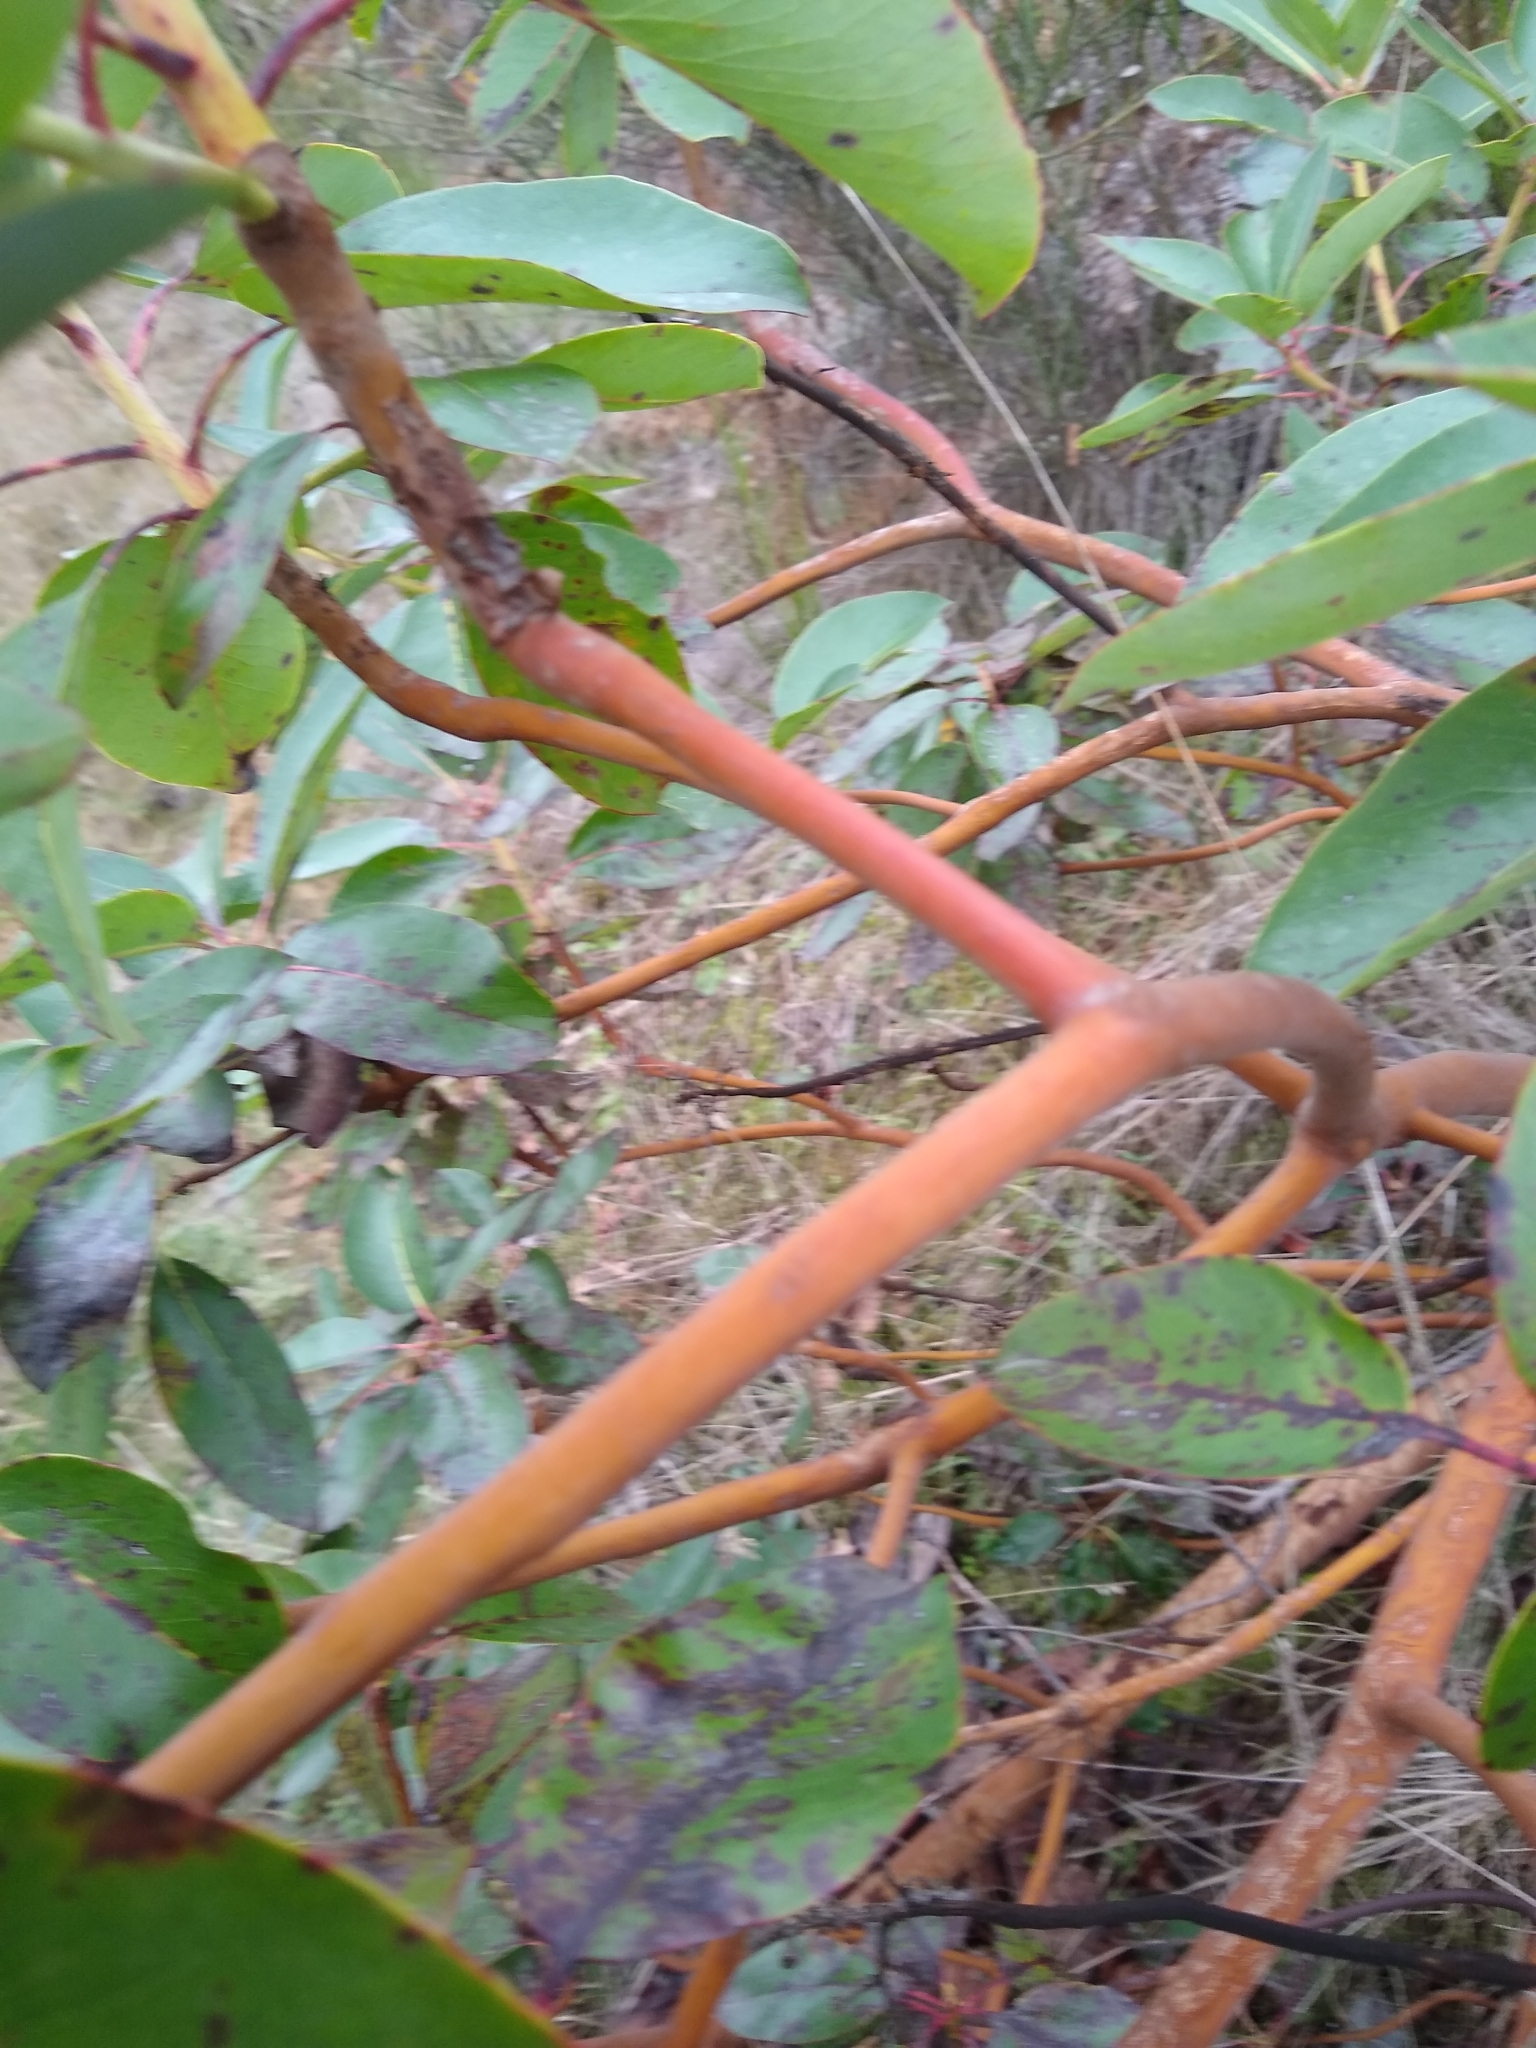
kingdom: Plantae
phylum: Tracheophyta
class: Magnoliopsida
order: Ericales
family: Ericaceae
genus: Arbutus
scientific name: Arbutus menziesii
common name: Pacific madrone
